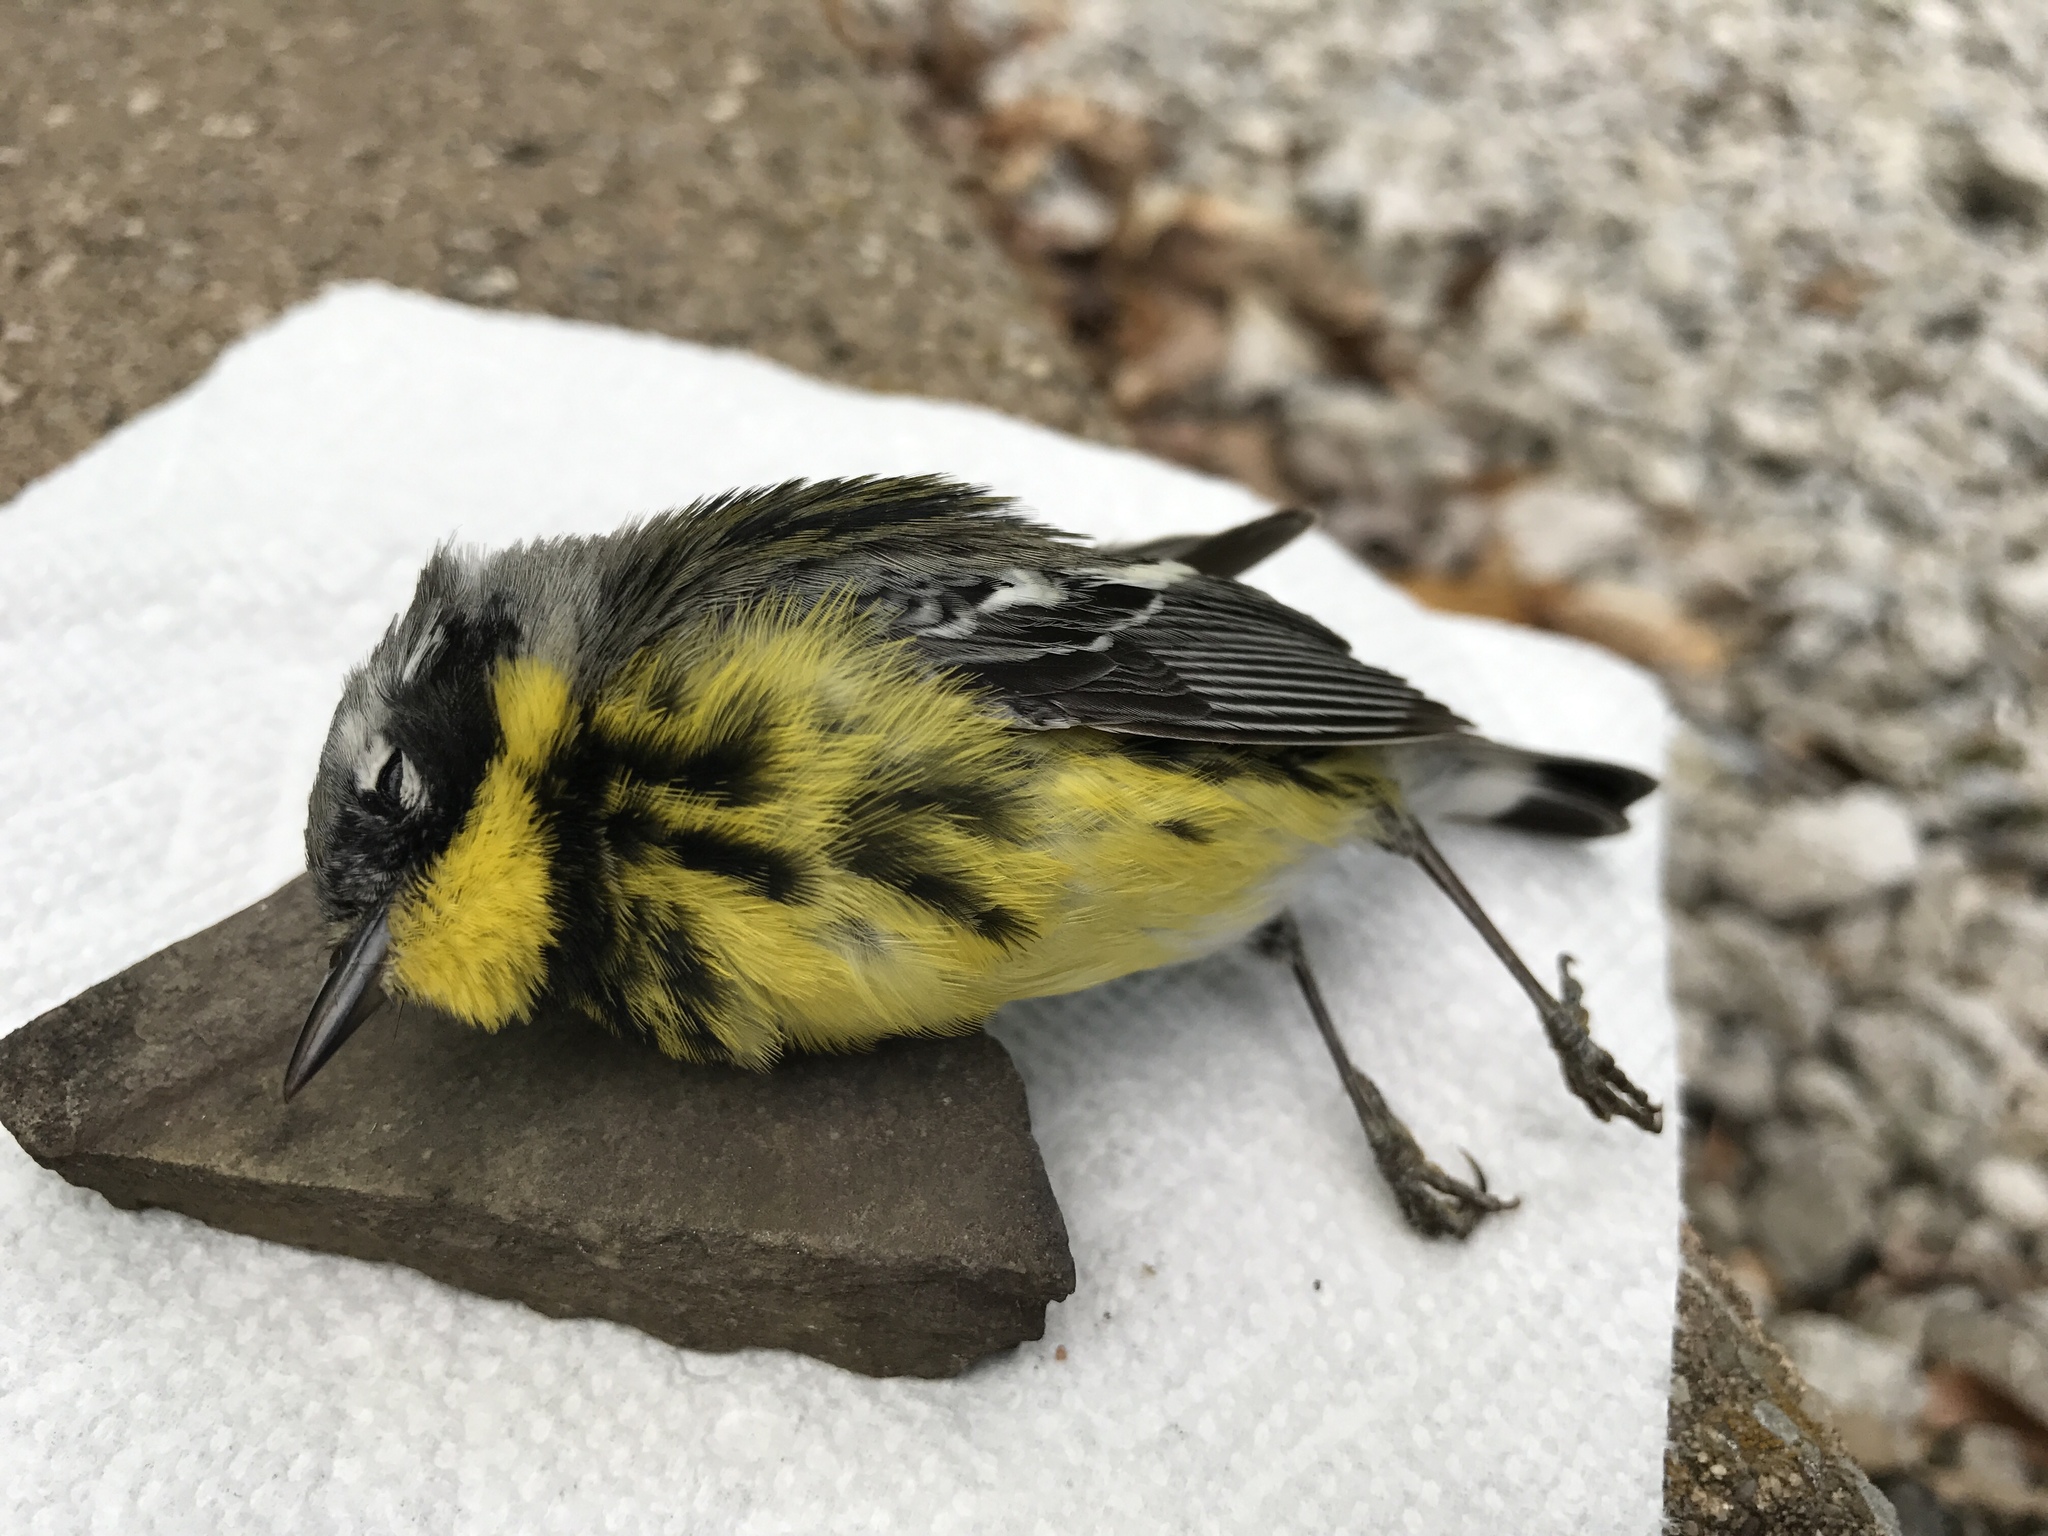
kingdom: Animalia
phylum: Chordata
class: Aves
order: Passeriformes
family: Parulidae
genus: Setophaga
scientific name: Setophaga magnolia
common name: Magnolia warbler
